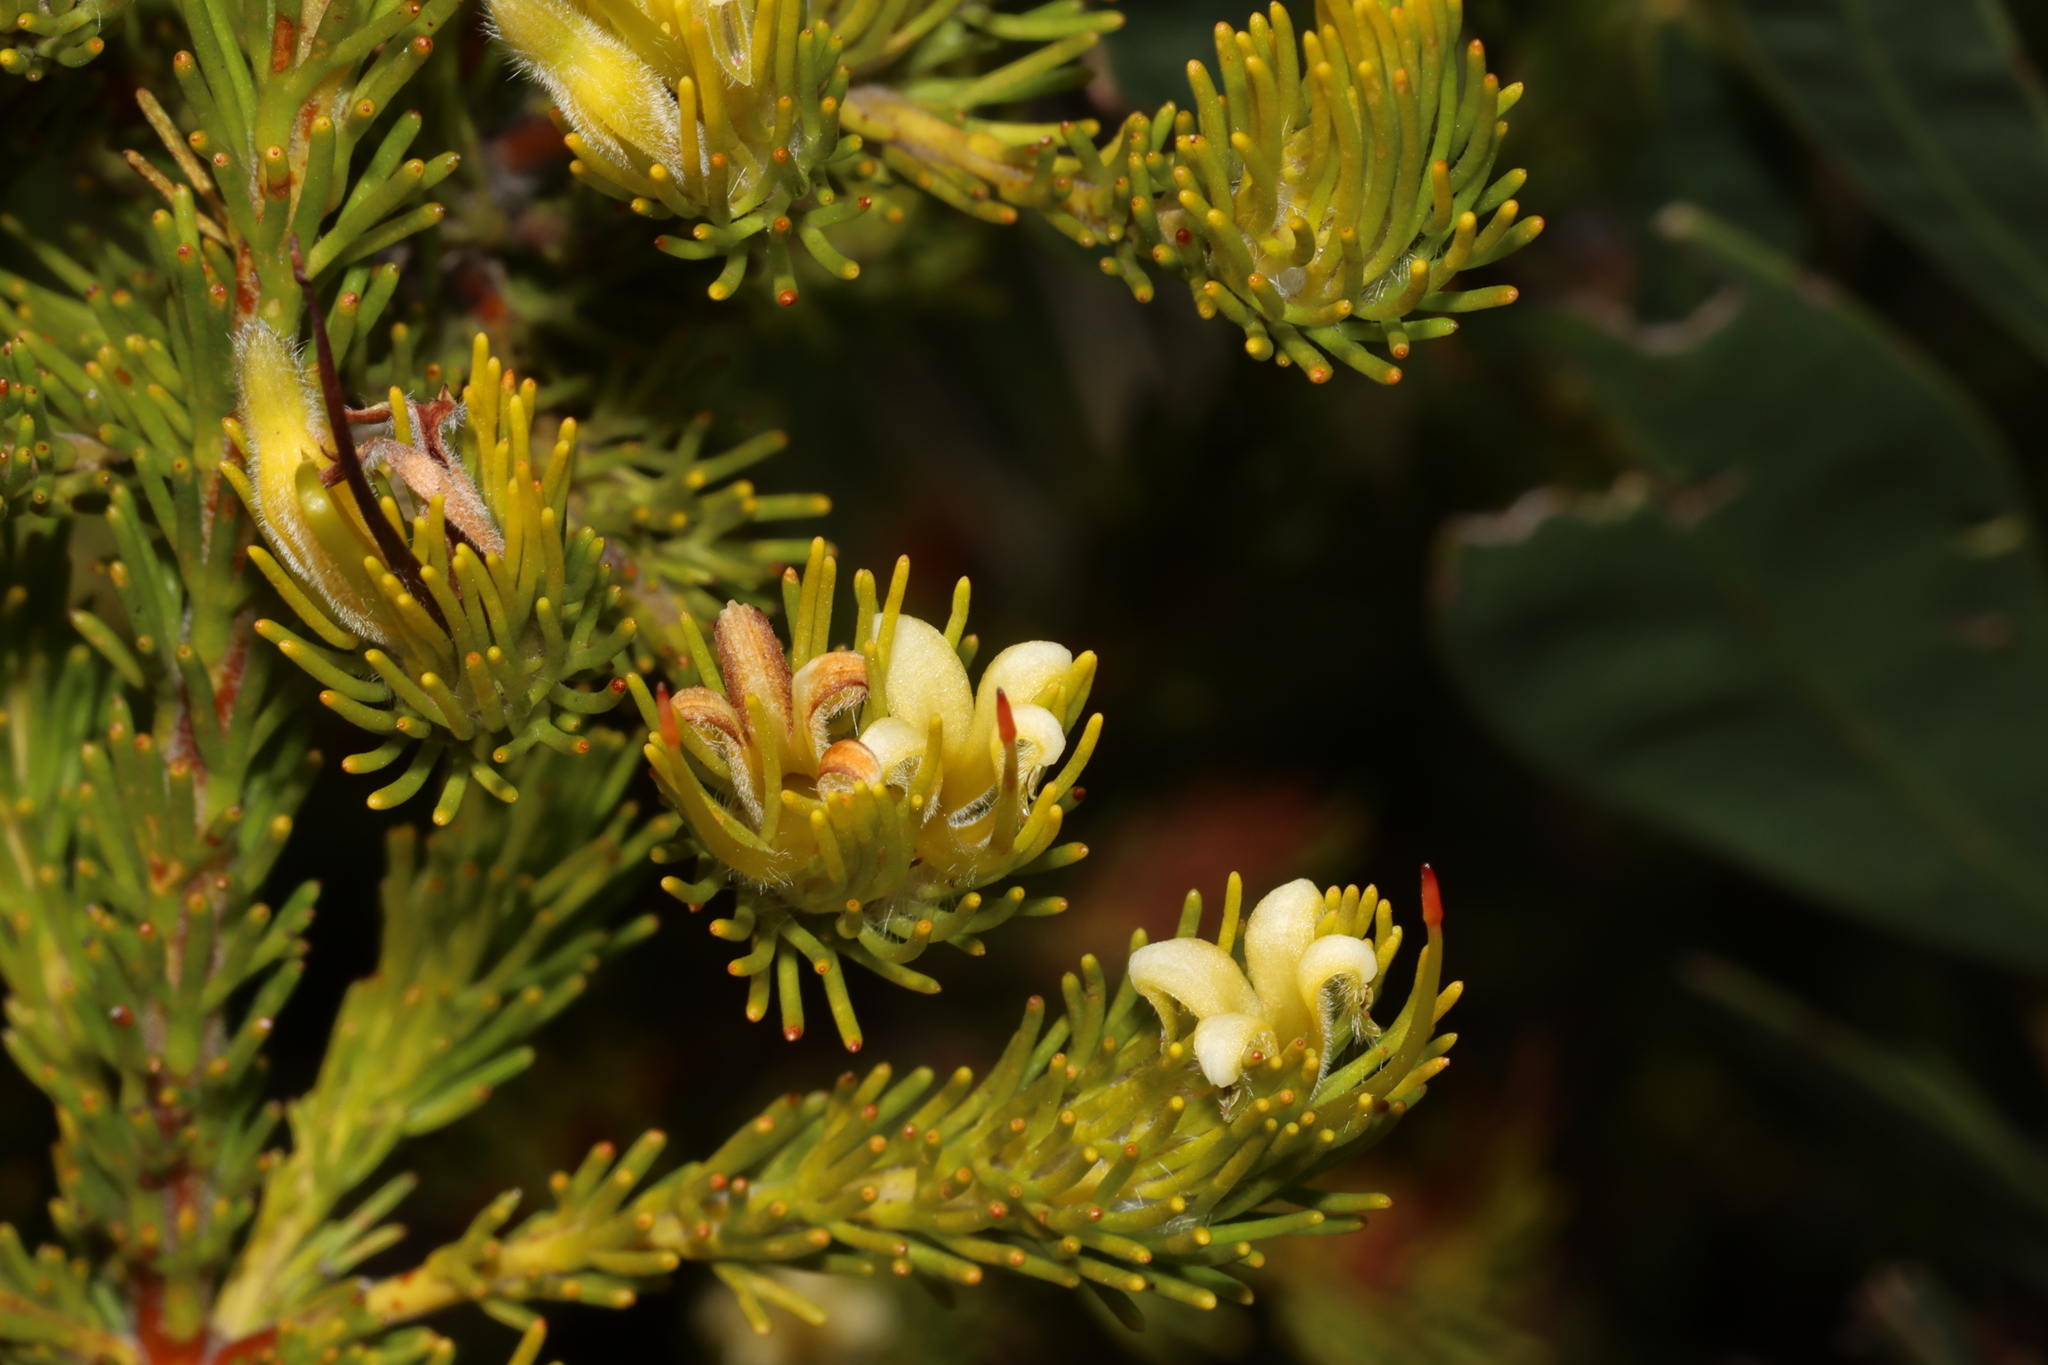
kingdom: Plantae
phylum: Tracheophyta
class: Magnoliopsida
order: Proteales
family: Proteaceae
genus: Adenanthos
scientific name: Adenanthos terminalis
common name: Yellow gland-flower
